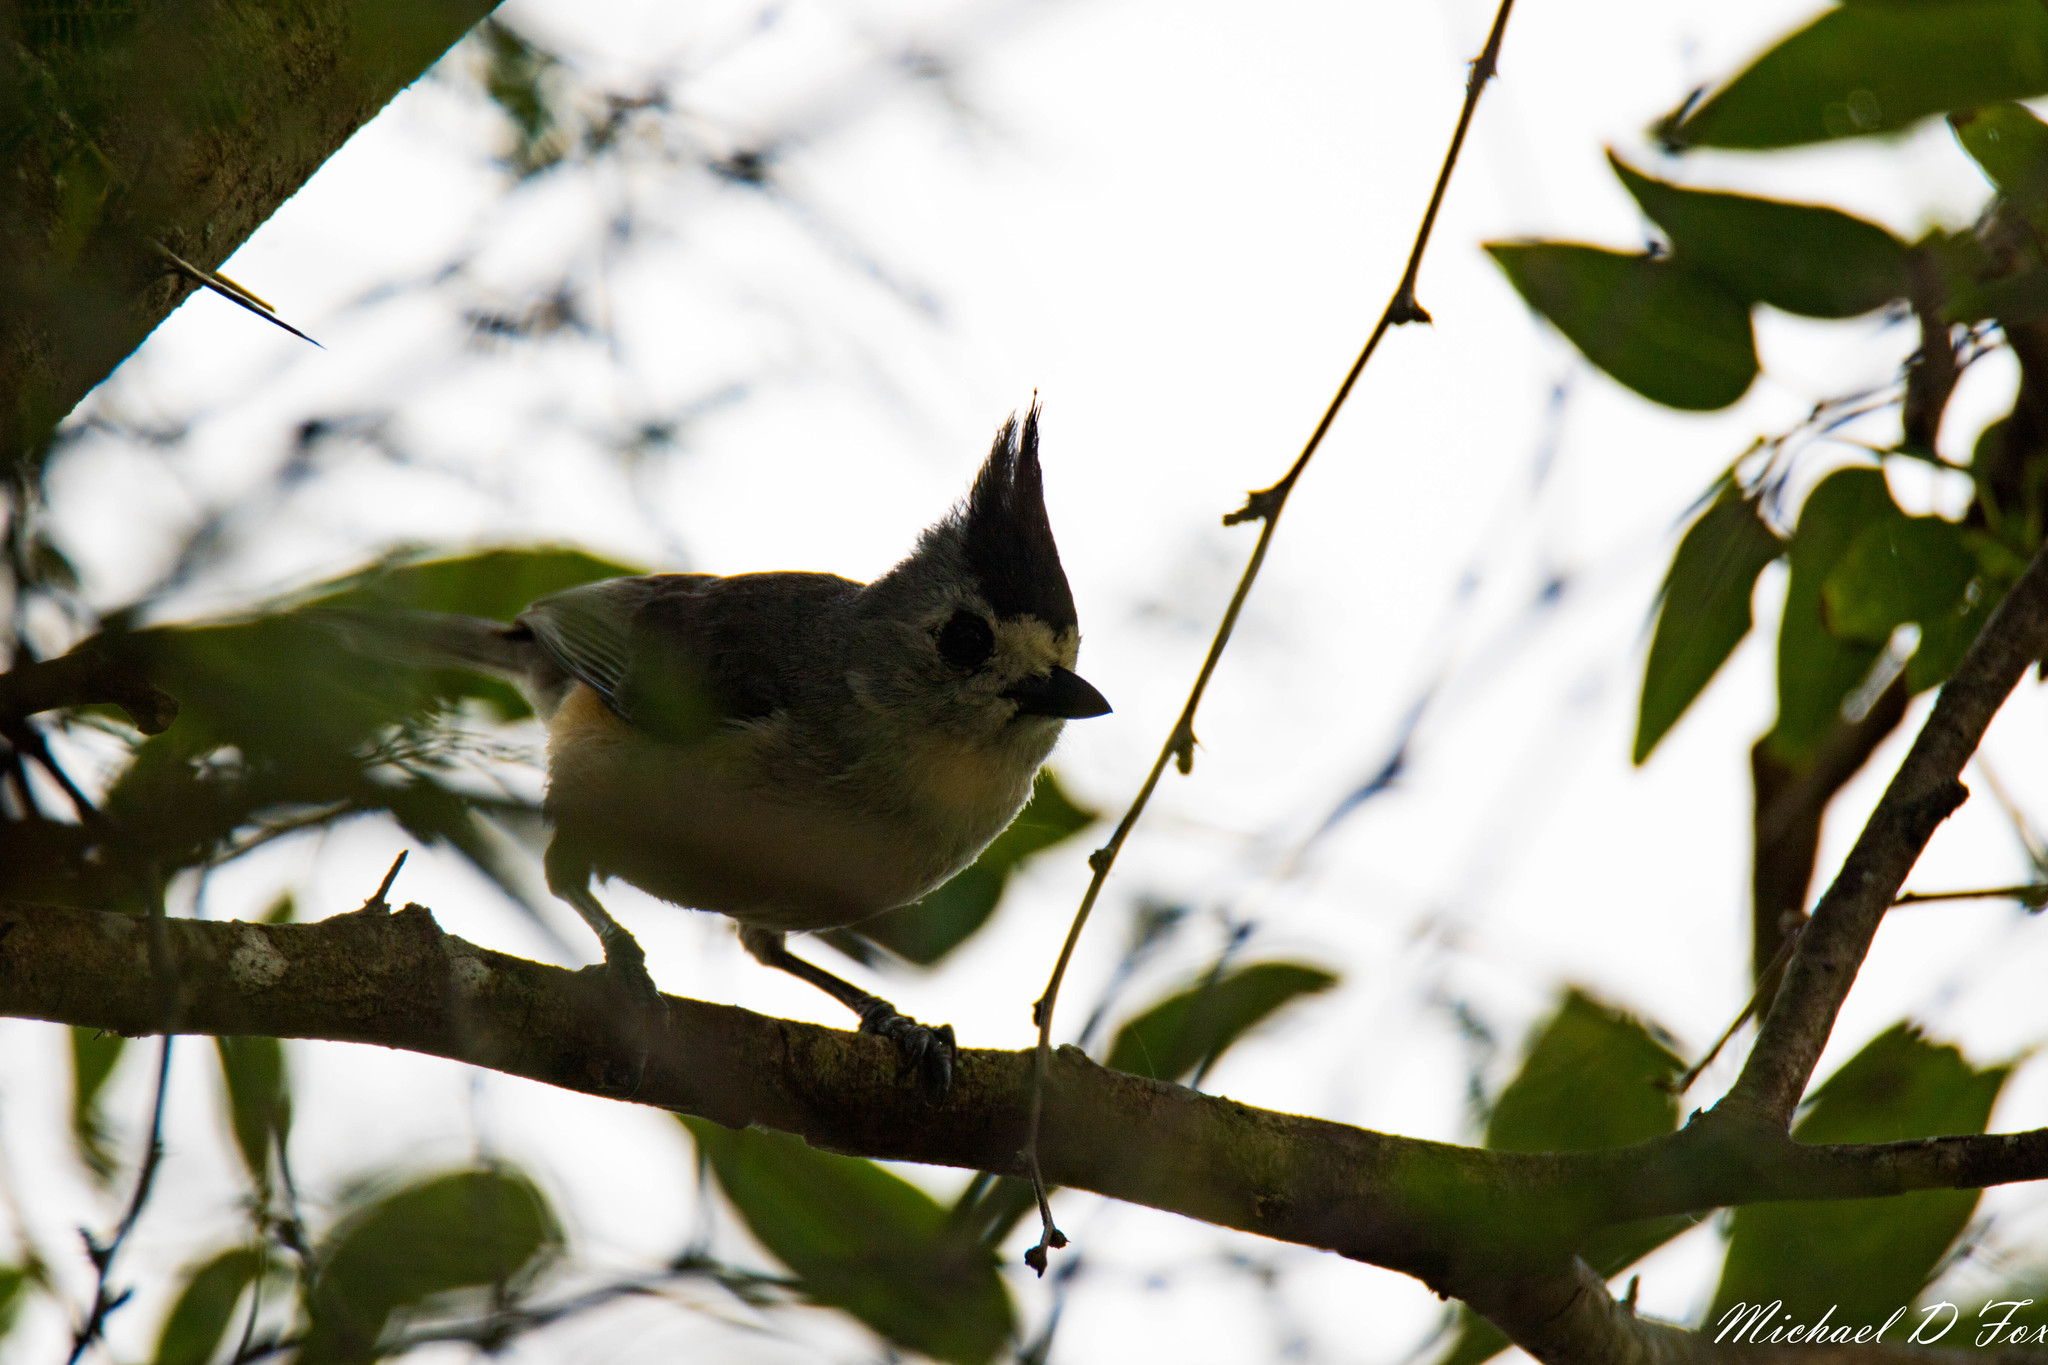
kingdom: Animalia
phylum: Chordata
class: Aves
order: Passeriformes
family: Paridae
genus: Baeolophus
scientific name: Baeolophus atricristatus
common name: Black-crested titmouse
